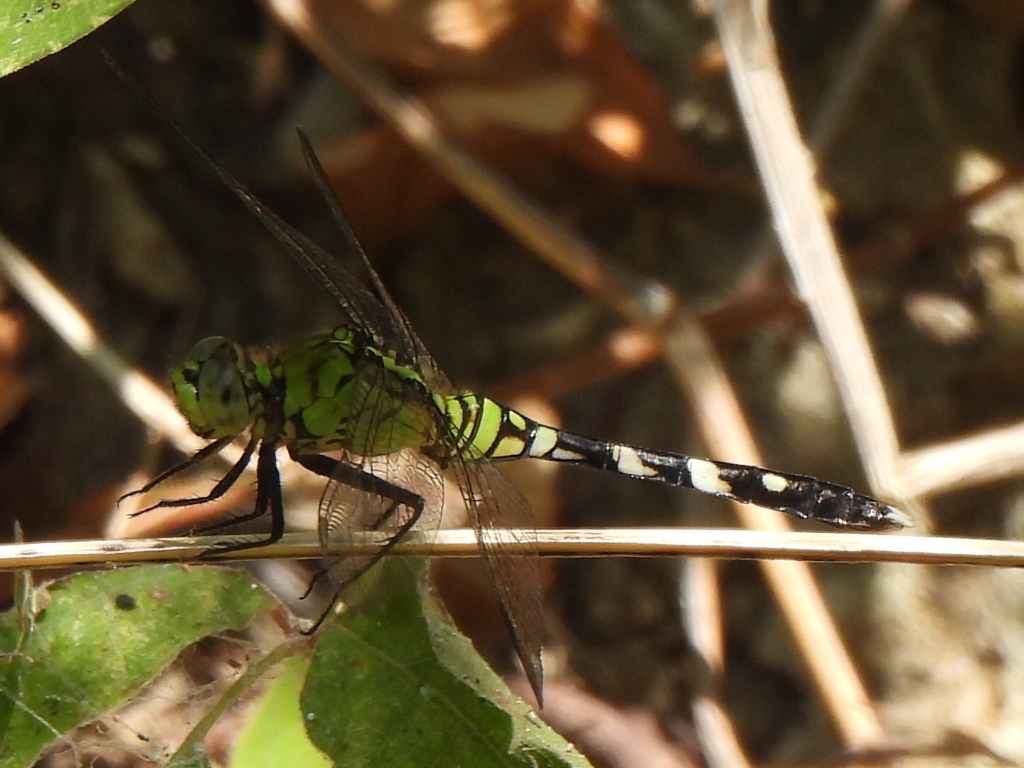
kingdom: Animalia
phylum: Arthropoda
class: Insecta
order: Odonata
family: Libellulidae
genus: Erythemis
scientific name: Erythemis simplicicollis
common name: Eastern pondhawk
